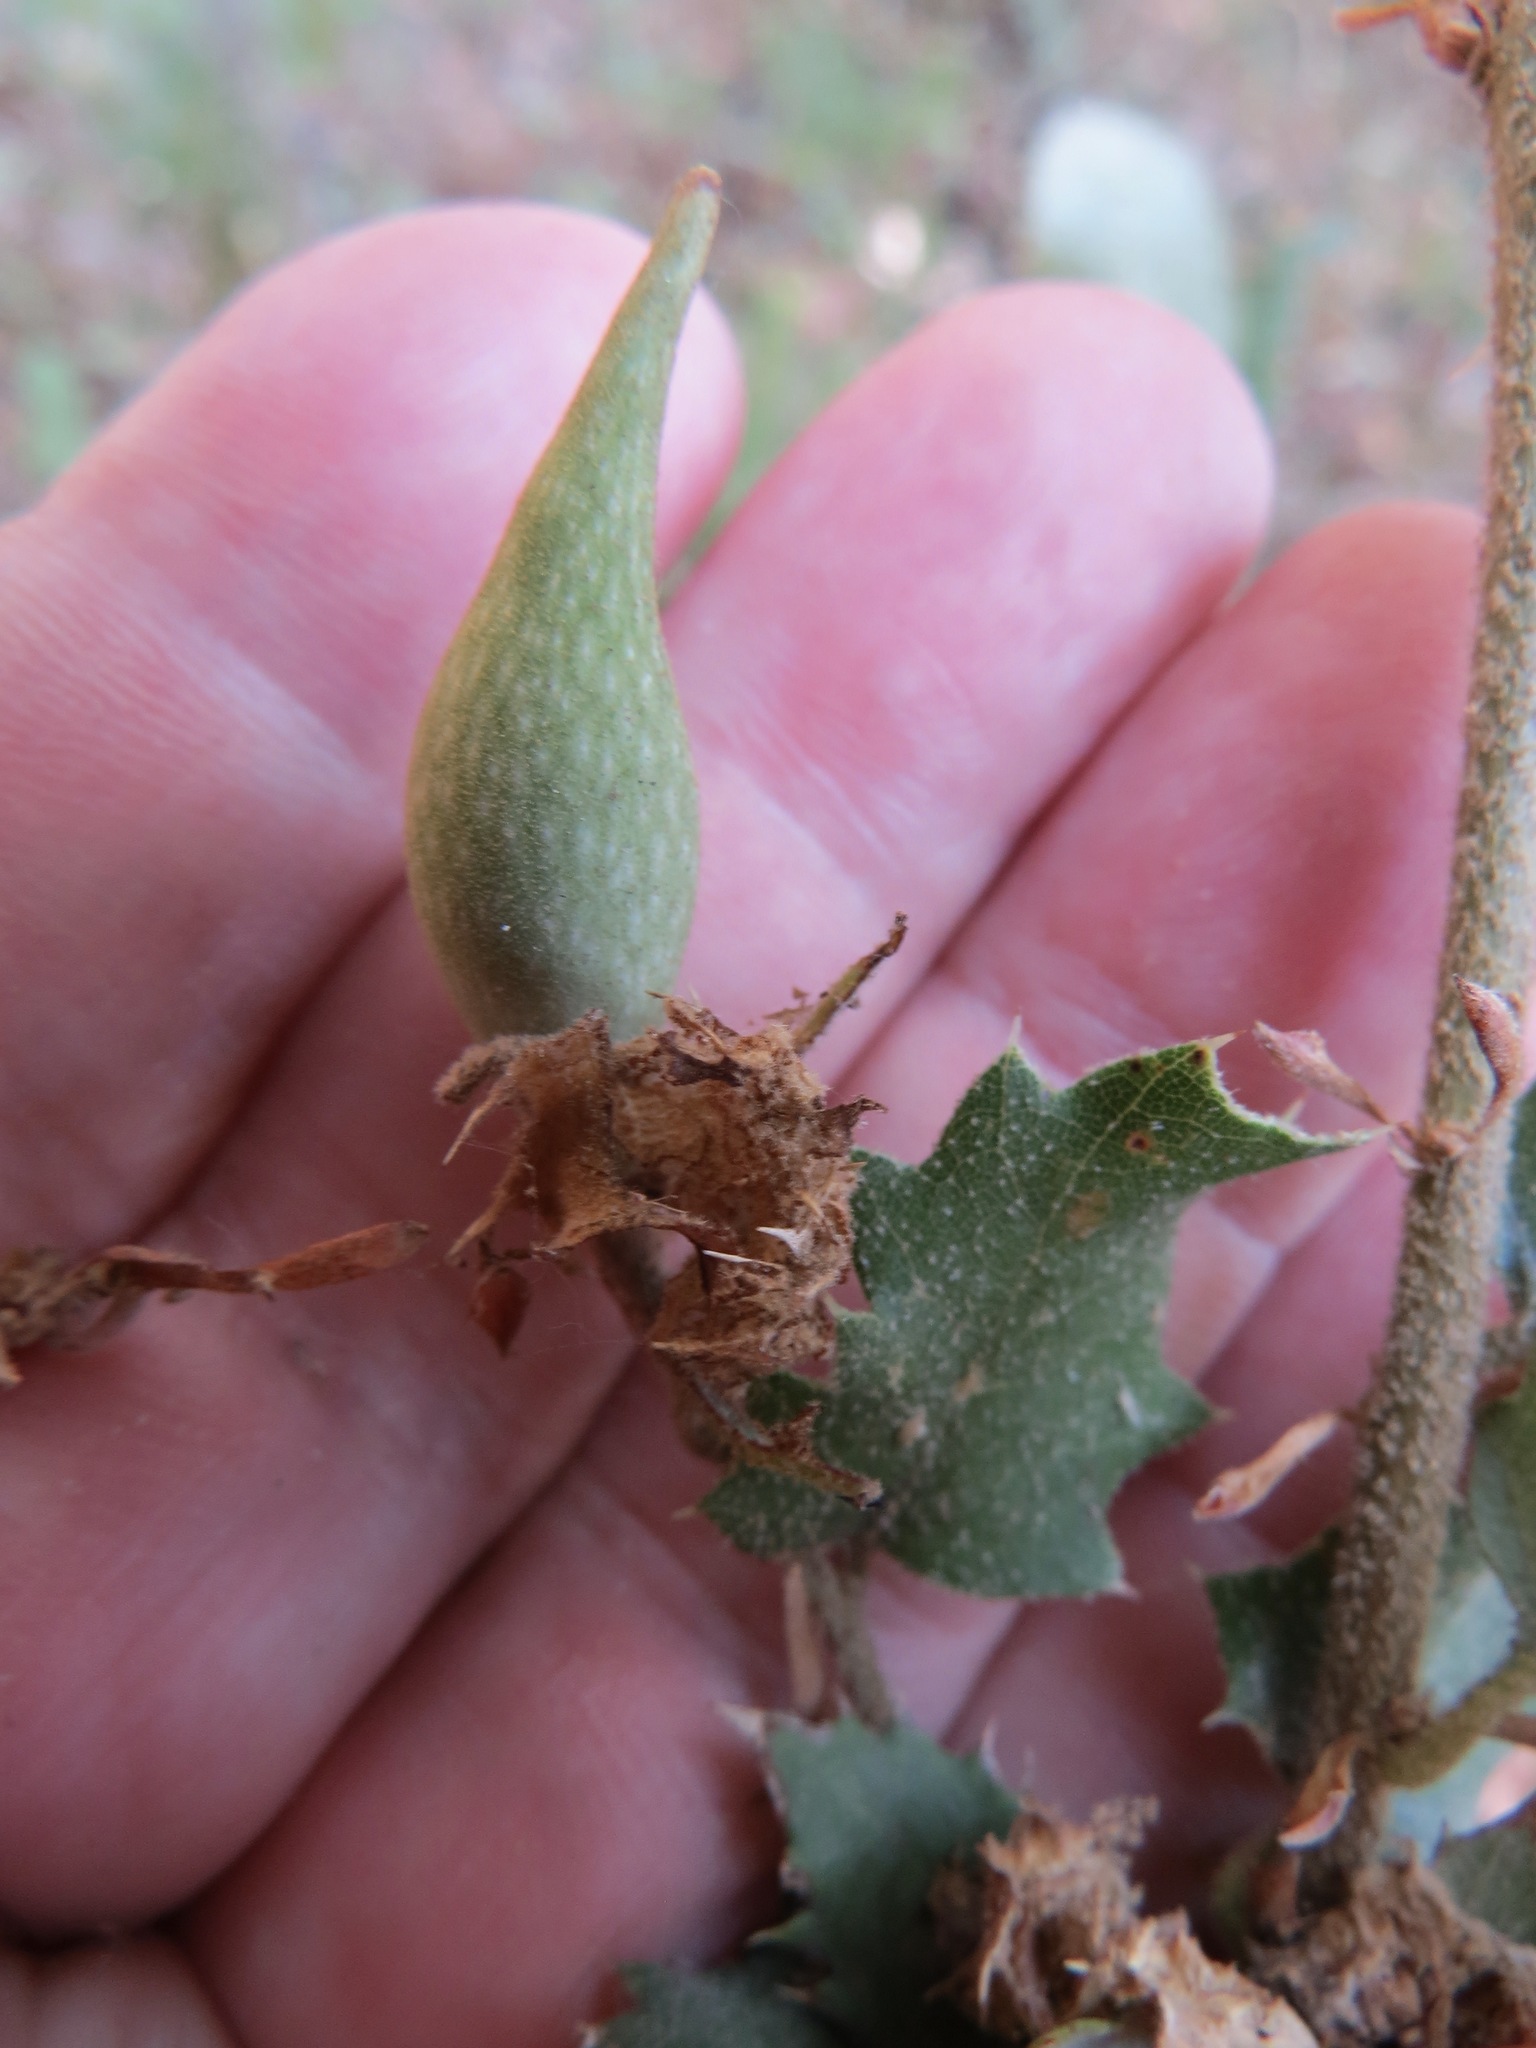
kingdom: Animalia
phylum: Arthropoda
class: Insecta
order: Hymenoptera
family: Cynipidae
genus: Heteroecus
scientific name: Heteroecus pacificus
